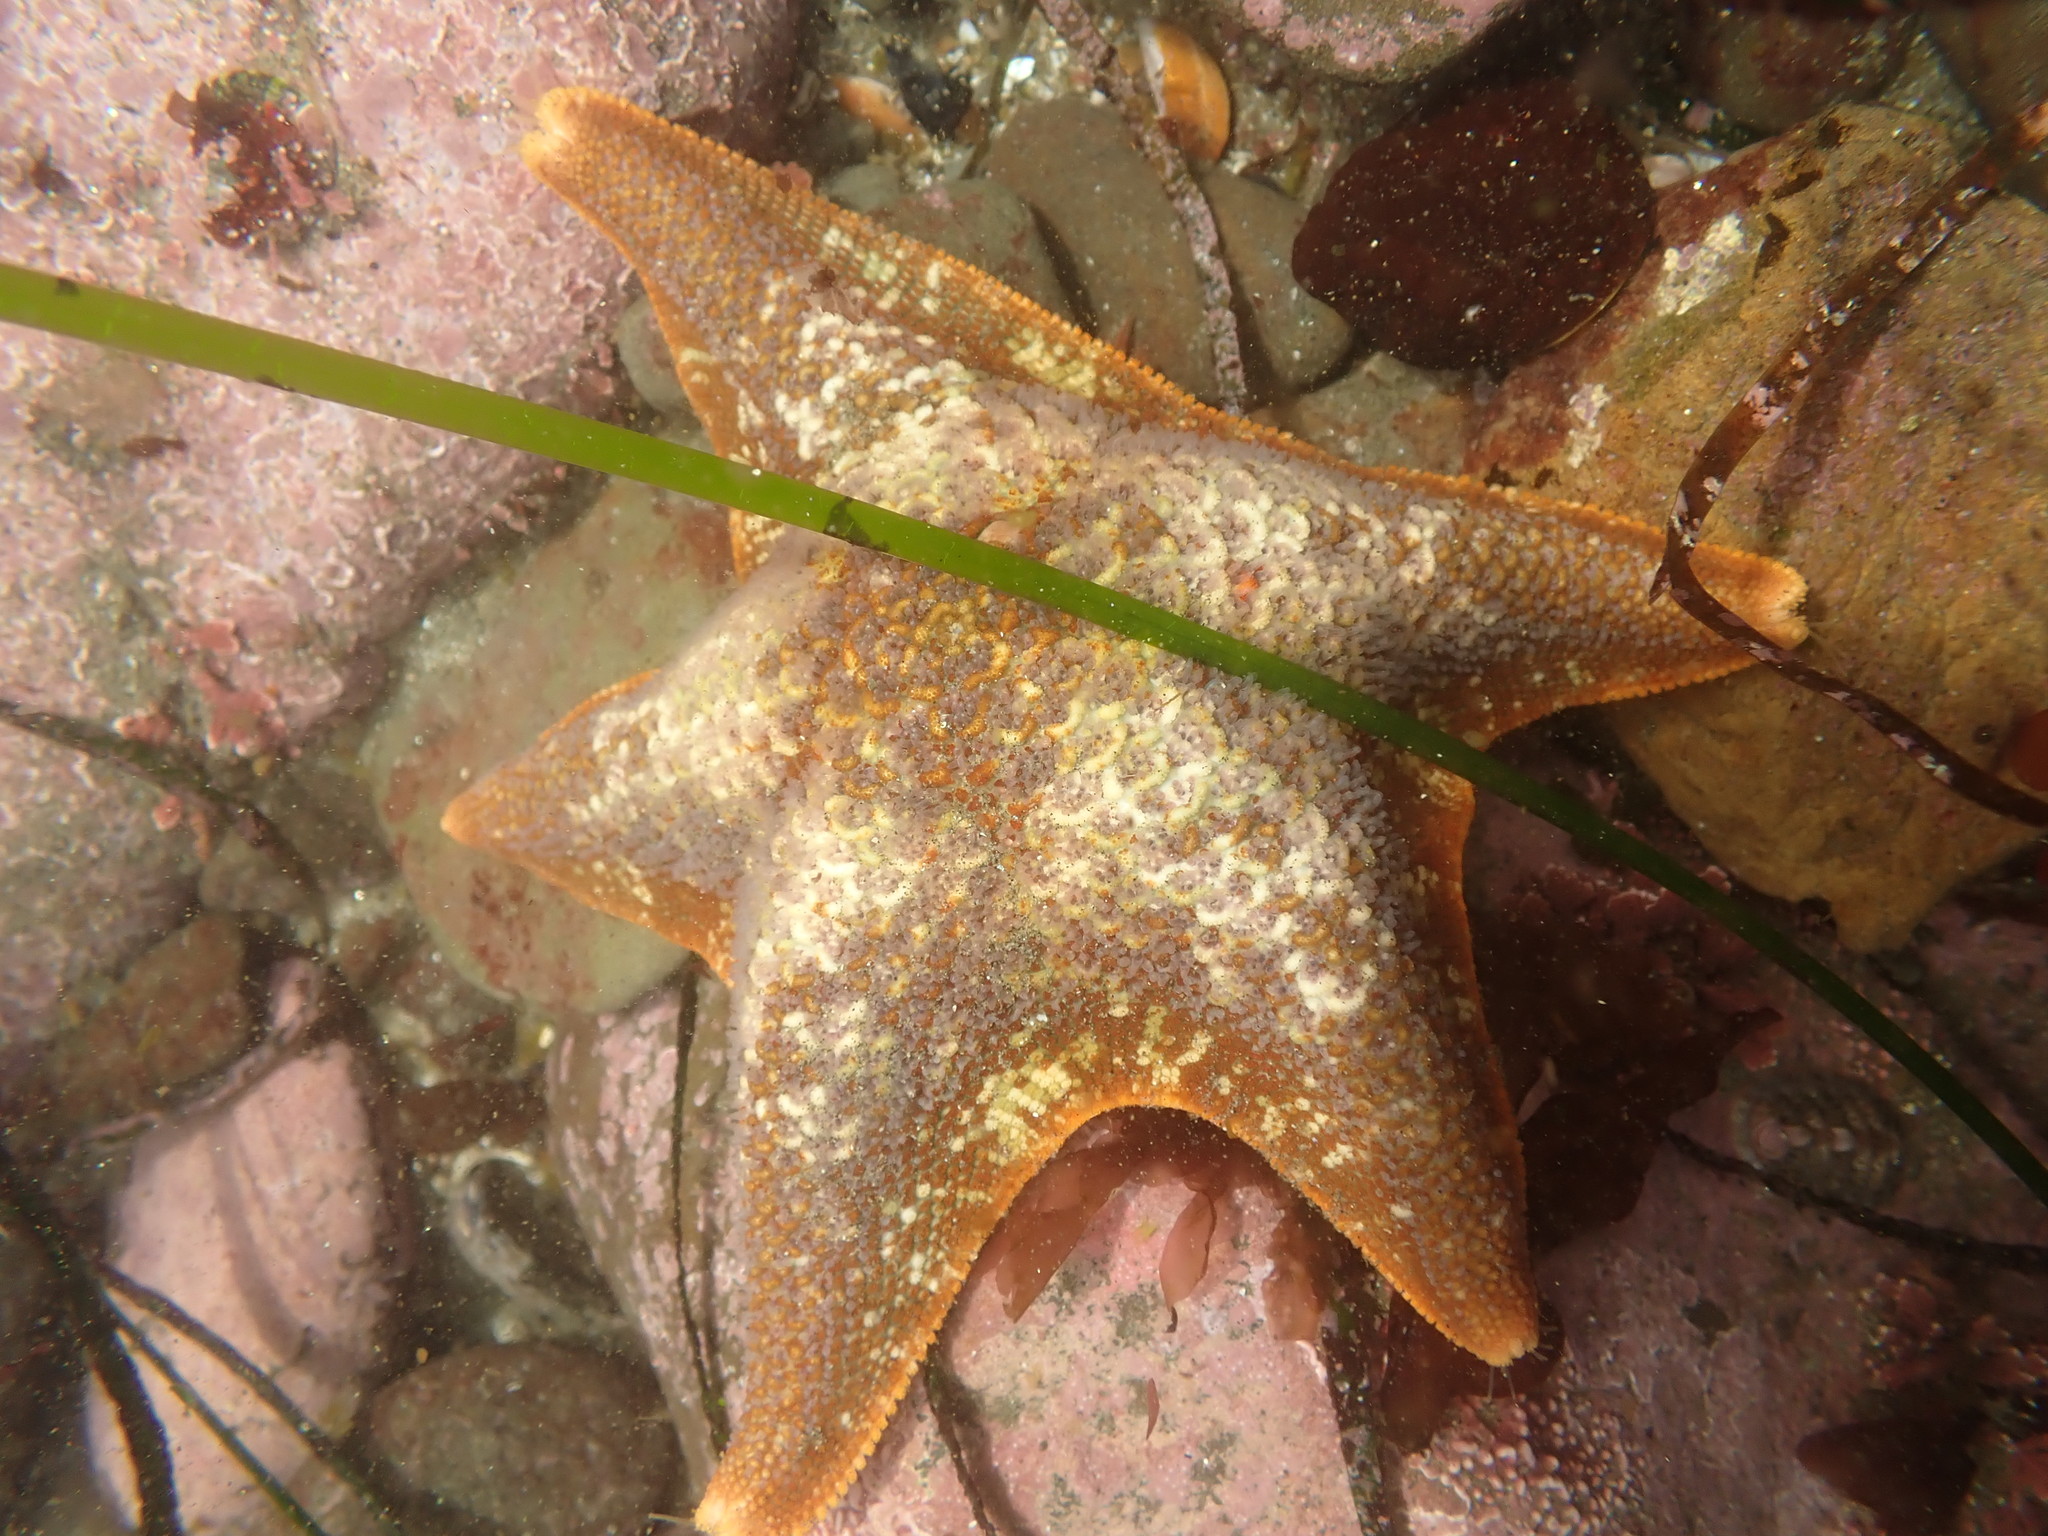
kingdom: Animalia
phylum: Echinodermata
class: Asteroidea
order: Valvatida
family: Asterinidae
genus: Patiria
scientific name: Patiria miniata
